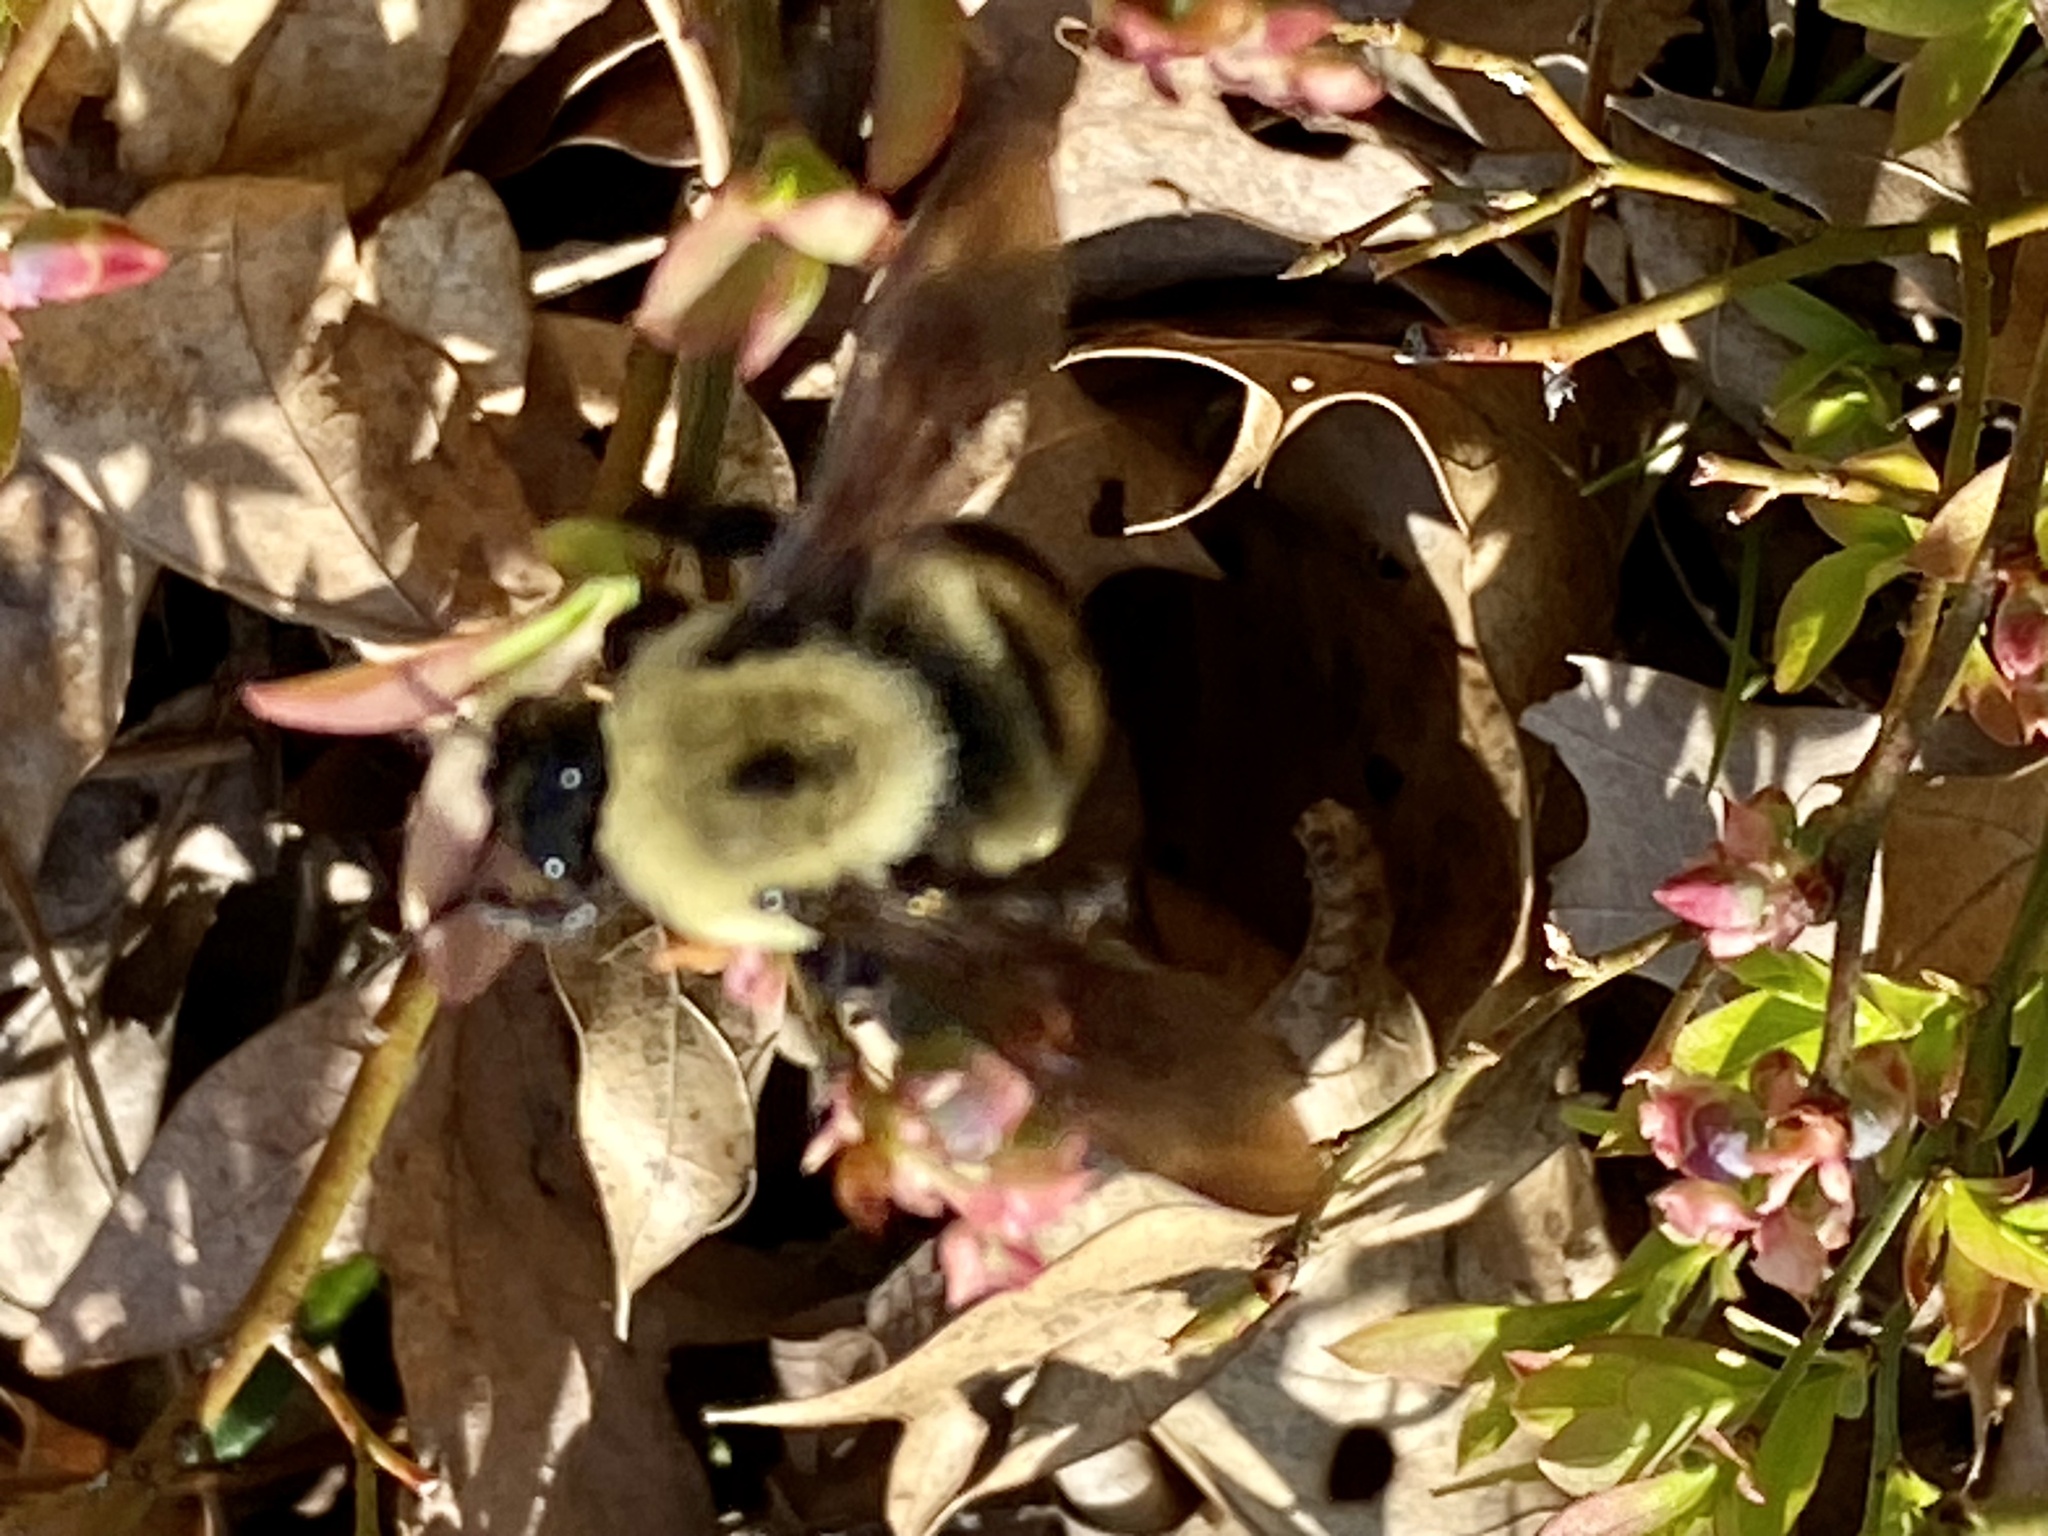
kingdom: Animalia
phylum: Arthropoda
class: Insecta
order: Hymenoptera
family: Apidae
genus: Bombus
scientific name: Bombus griseocollis
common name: Brown-belted bumble bee
